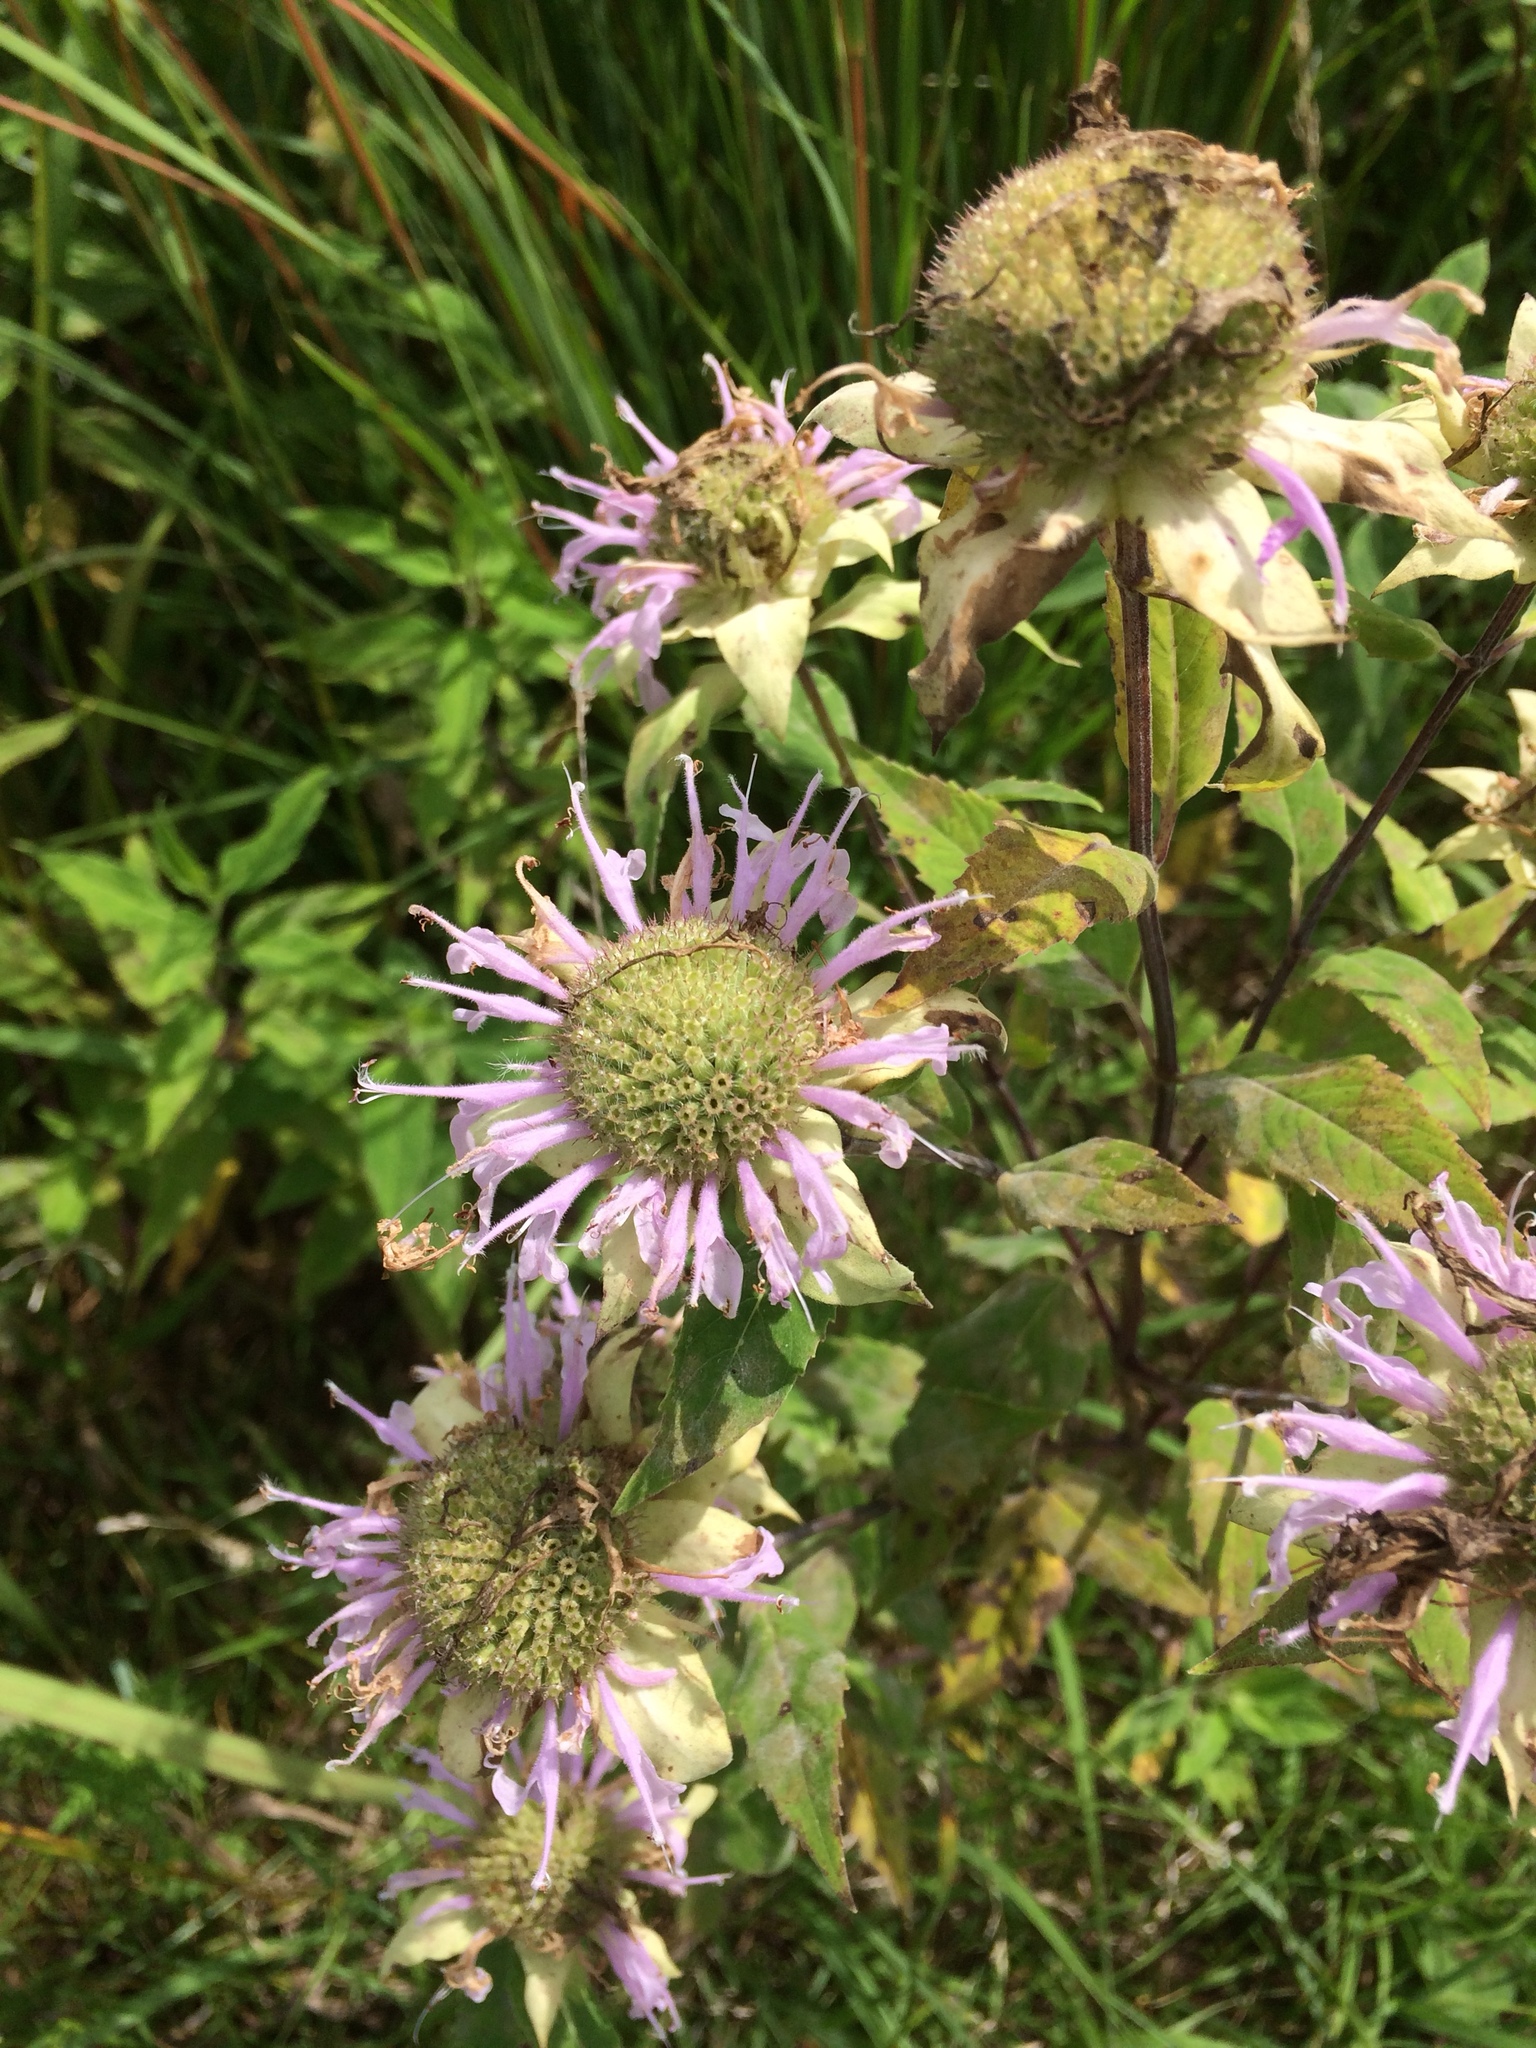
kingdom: Plantae
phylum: Tracheophyta
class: Magnoliopsida
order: Lamiales
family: Lamiaceae
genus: Monarda
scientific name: Monarda fistulosa
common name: Purple beebalm
